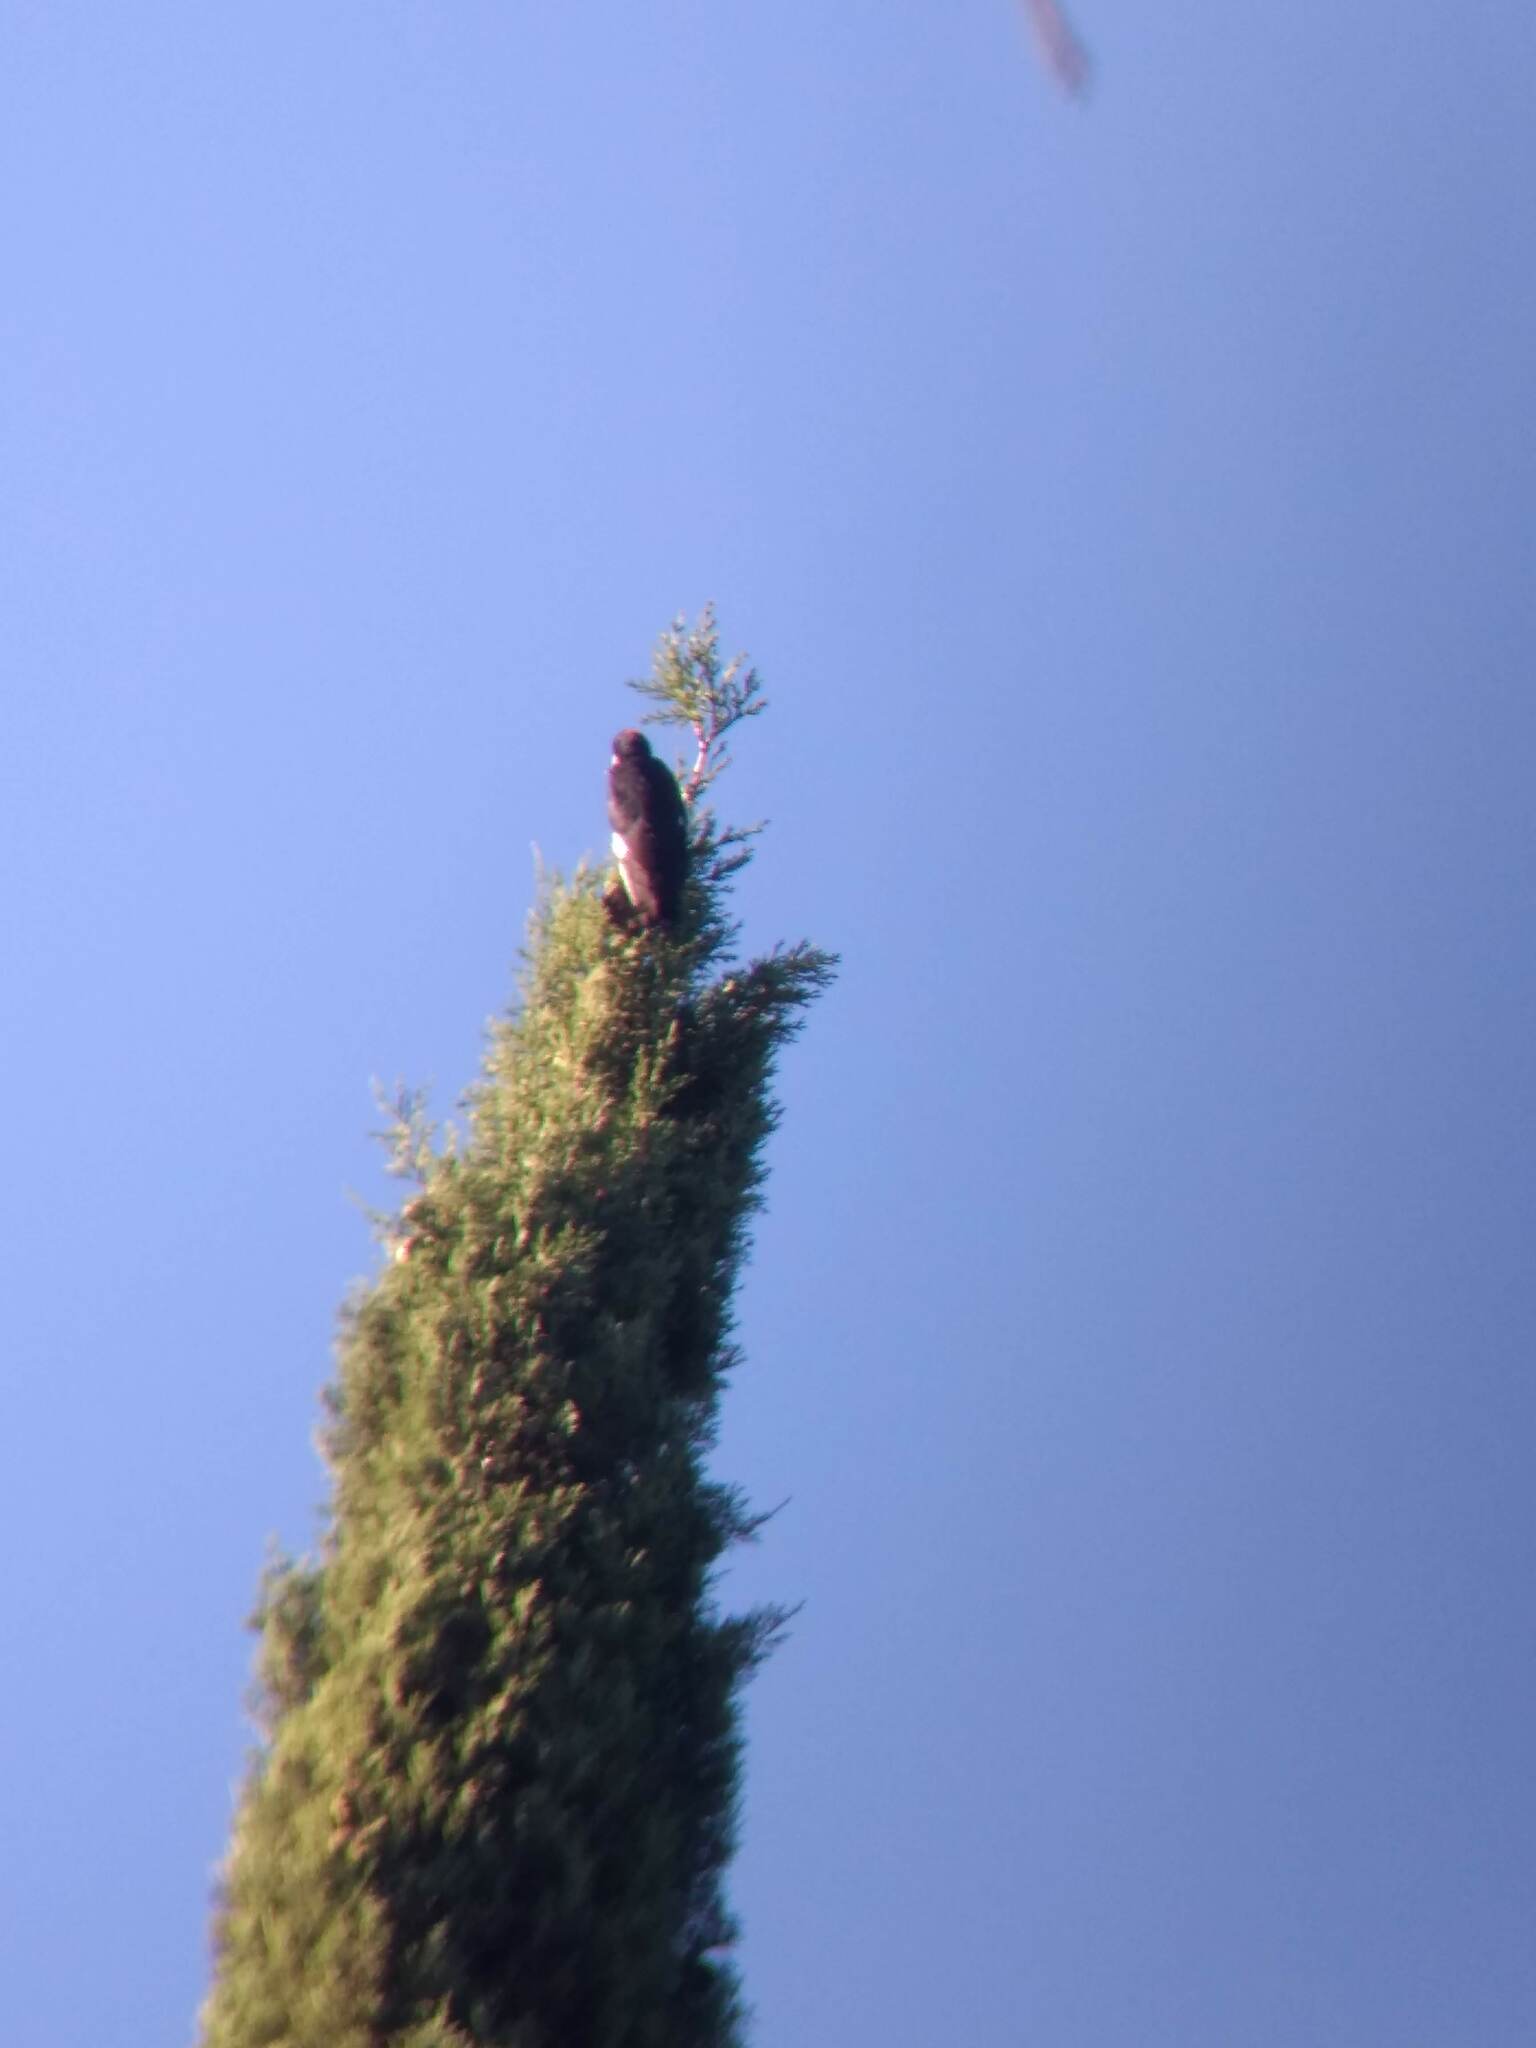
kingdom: Animalia
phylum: Chordata
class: Aves
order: Piciformes
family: Picidae
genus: Melanerpes
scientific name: Melanerpes formicivorus
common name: Acorn woodpecker
